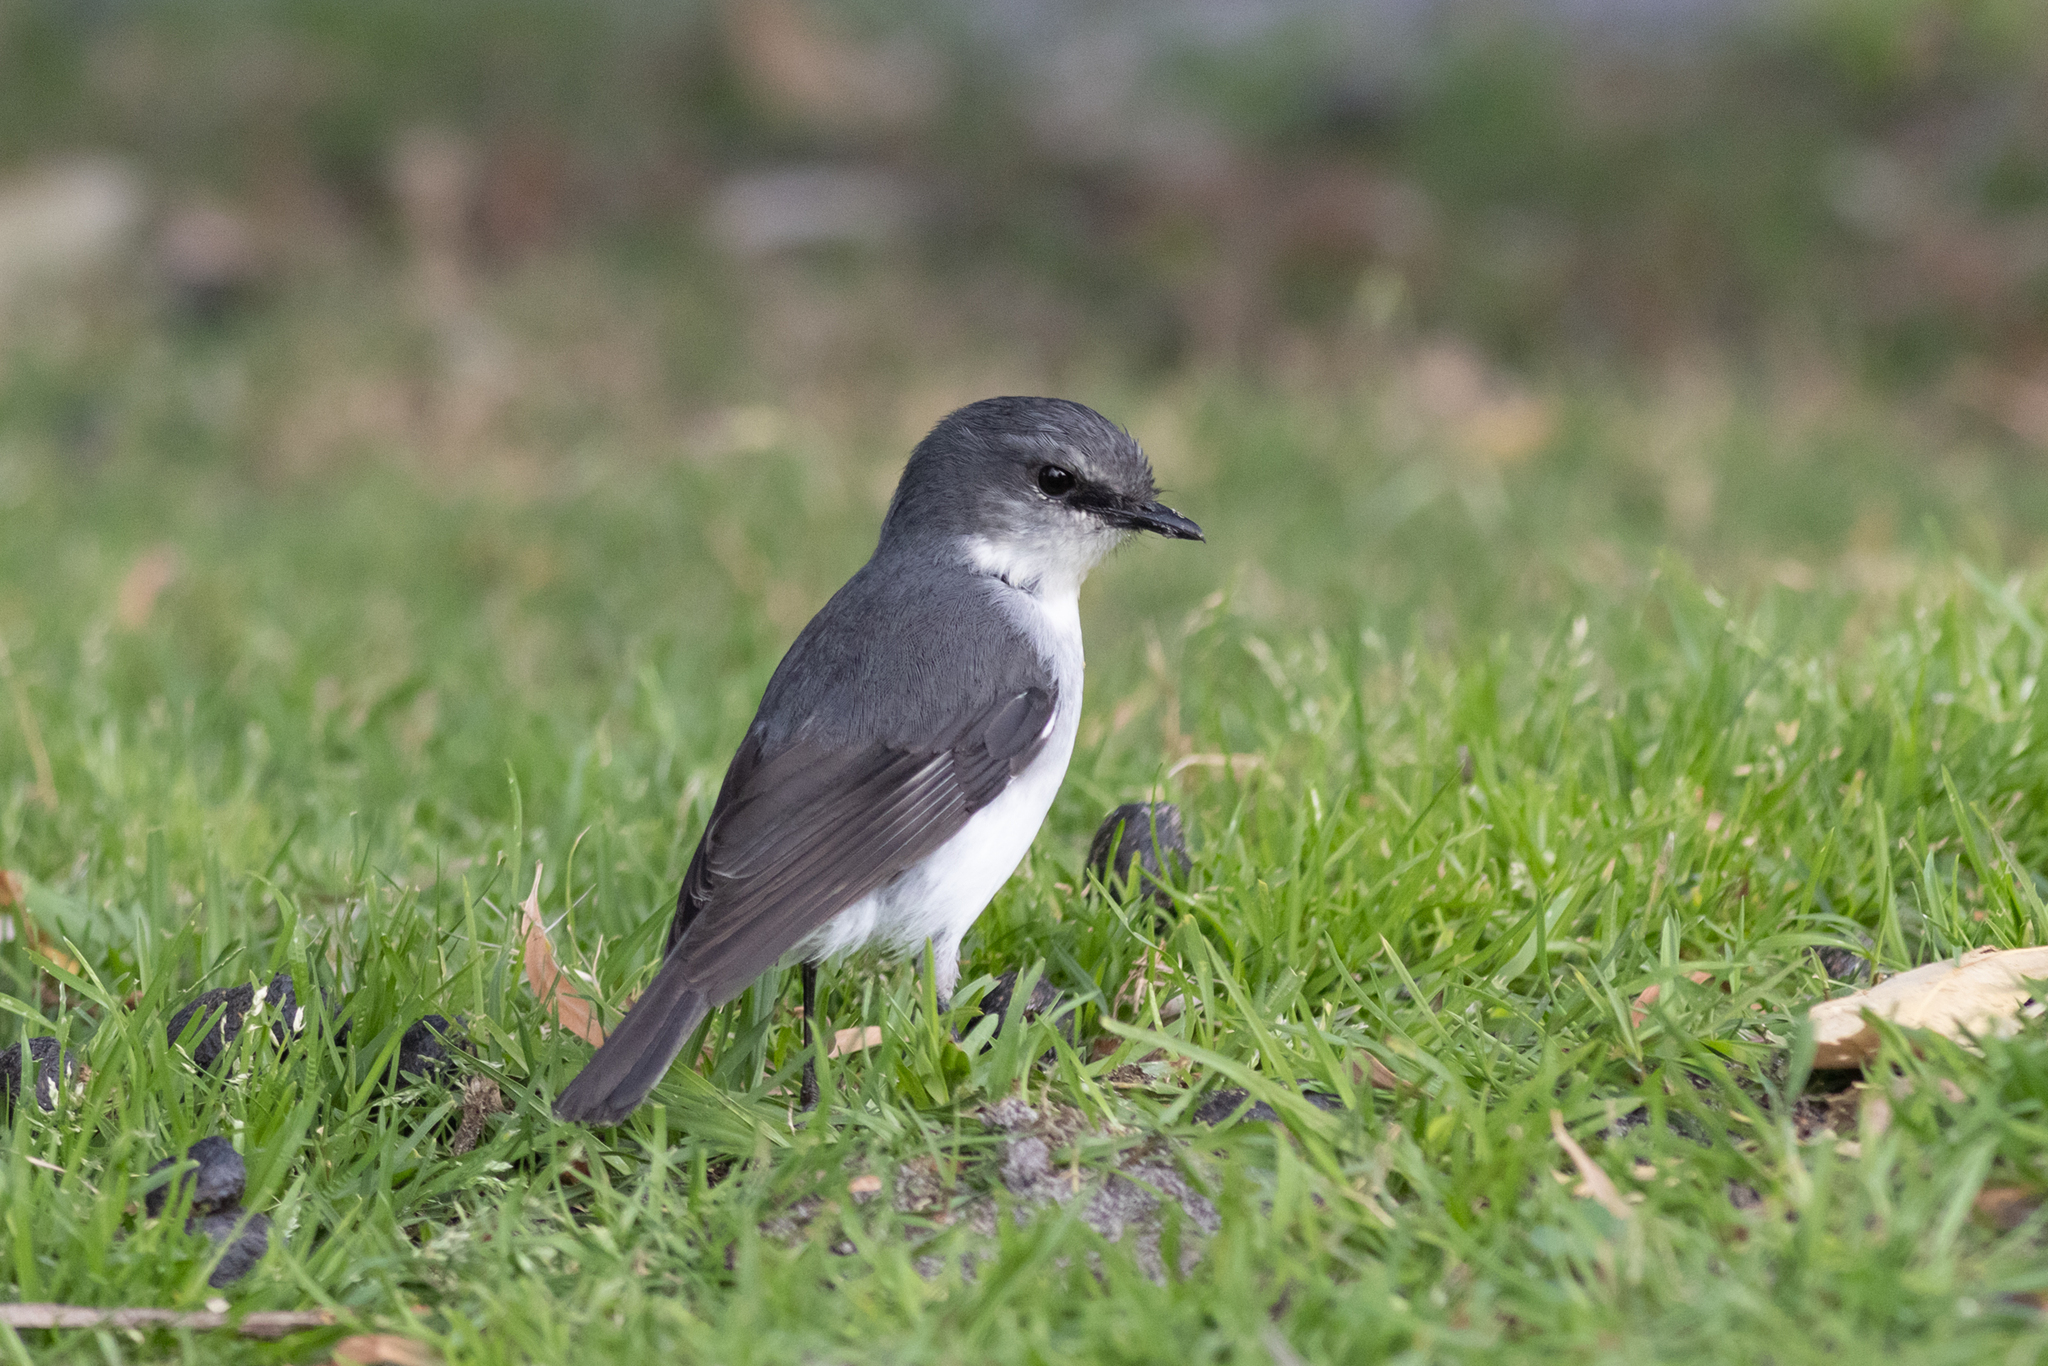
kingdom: Animalia
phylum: Chordata
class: Aves
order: Passeriformes
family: Petroicidae
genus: Eopsaltria
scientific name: Eopsaltria georgiana
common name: White-breasted robin
